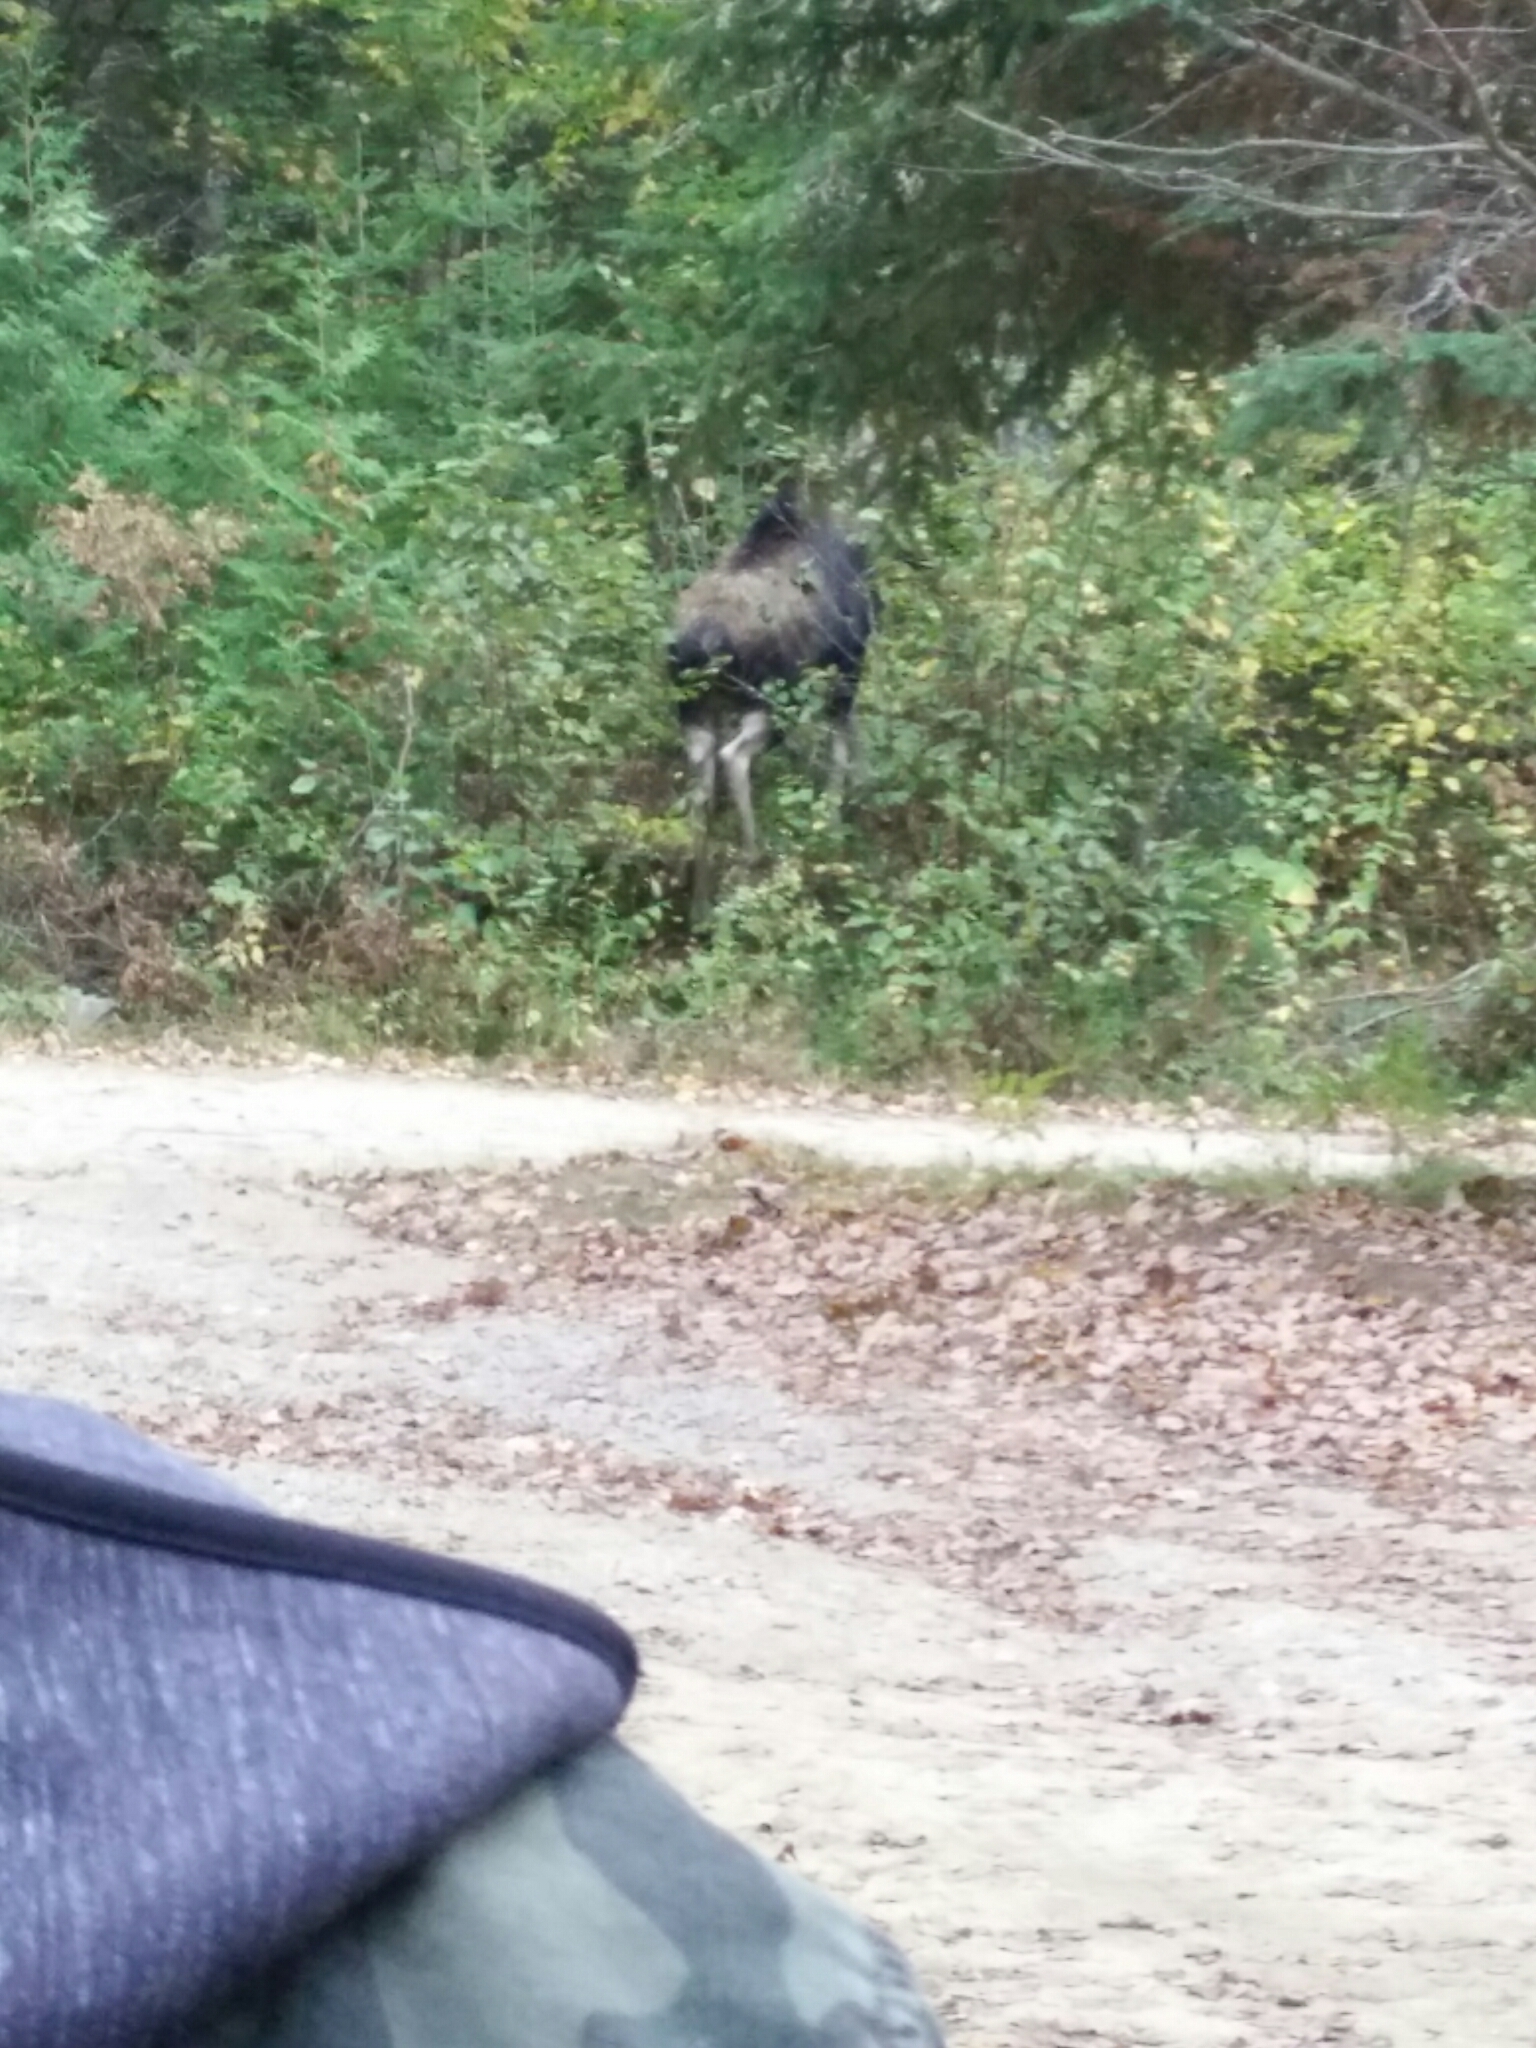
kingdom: Animalia
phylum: Chordata
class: Mammalia
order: Artiodactyla
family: Cervidae
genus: Alces
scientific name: Alces alces
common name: Moose
